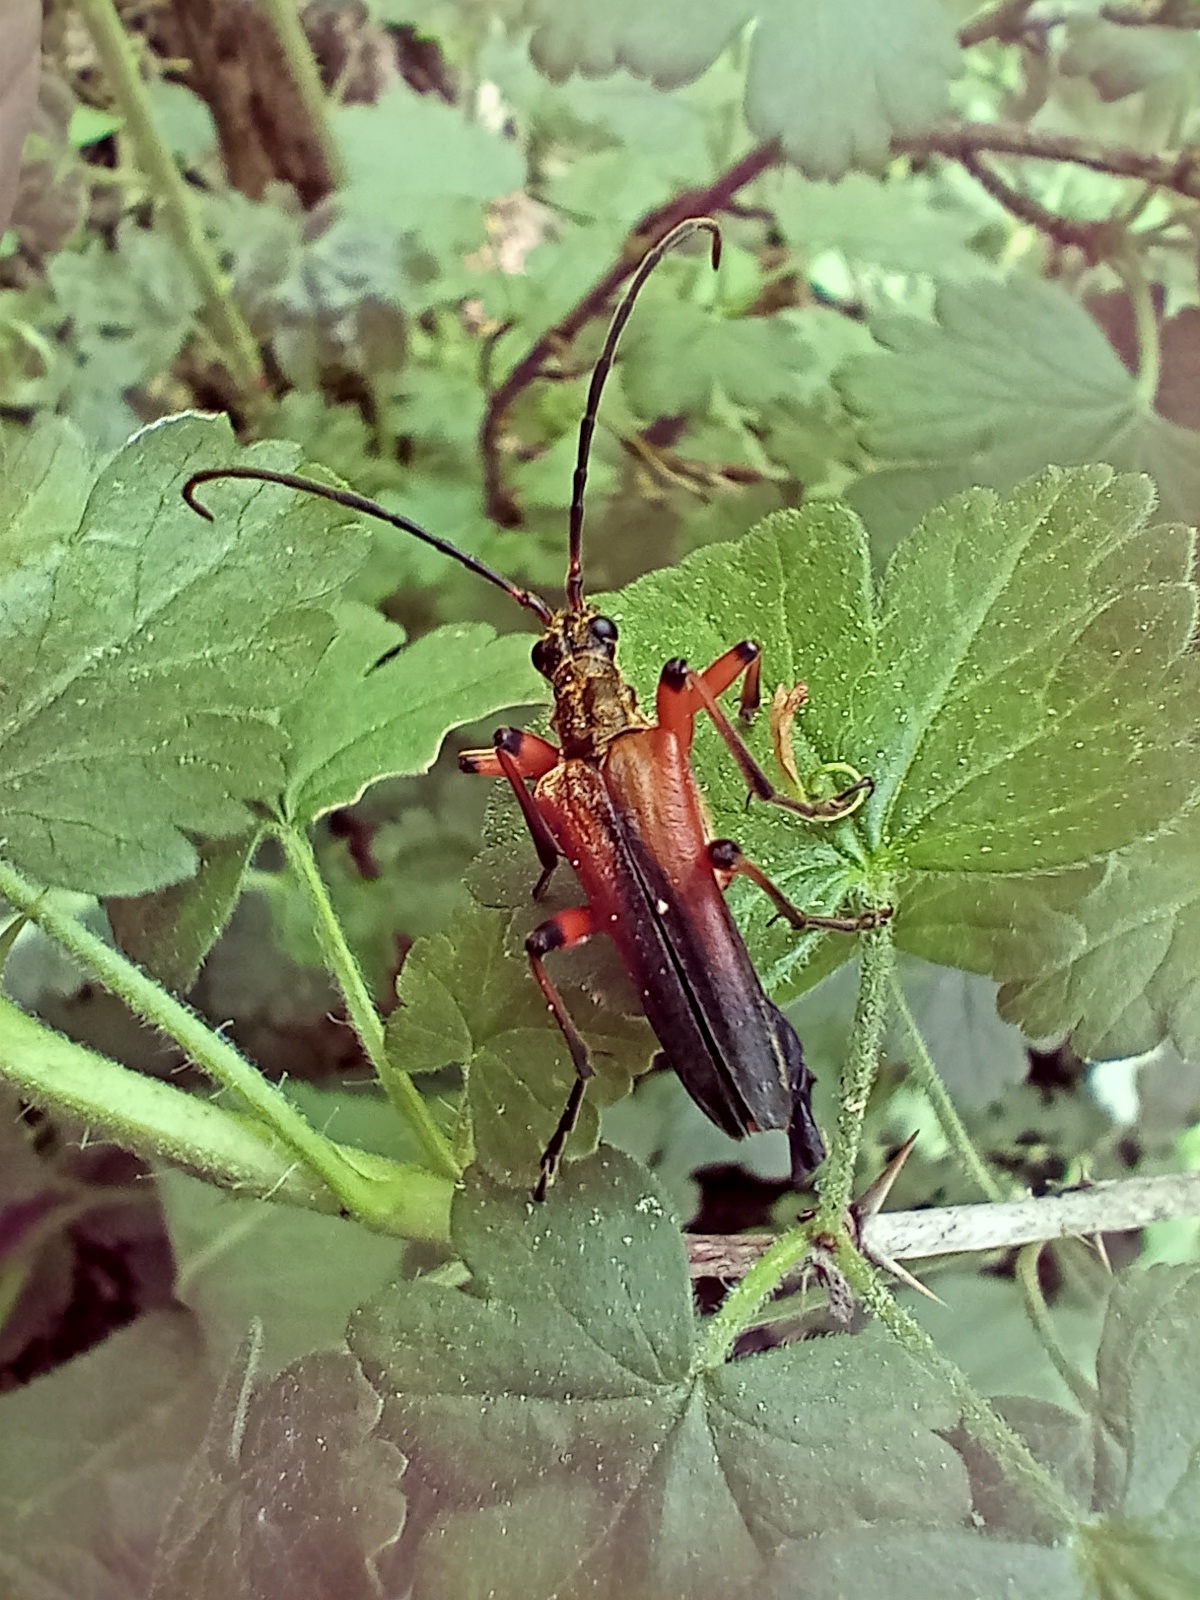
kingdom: Animalia
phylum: Arthropoda
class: Insecta
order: Coleoptera
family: Cerambycidae
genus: Stenocorus
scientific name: Stenocorus meridianus
